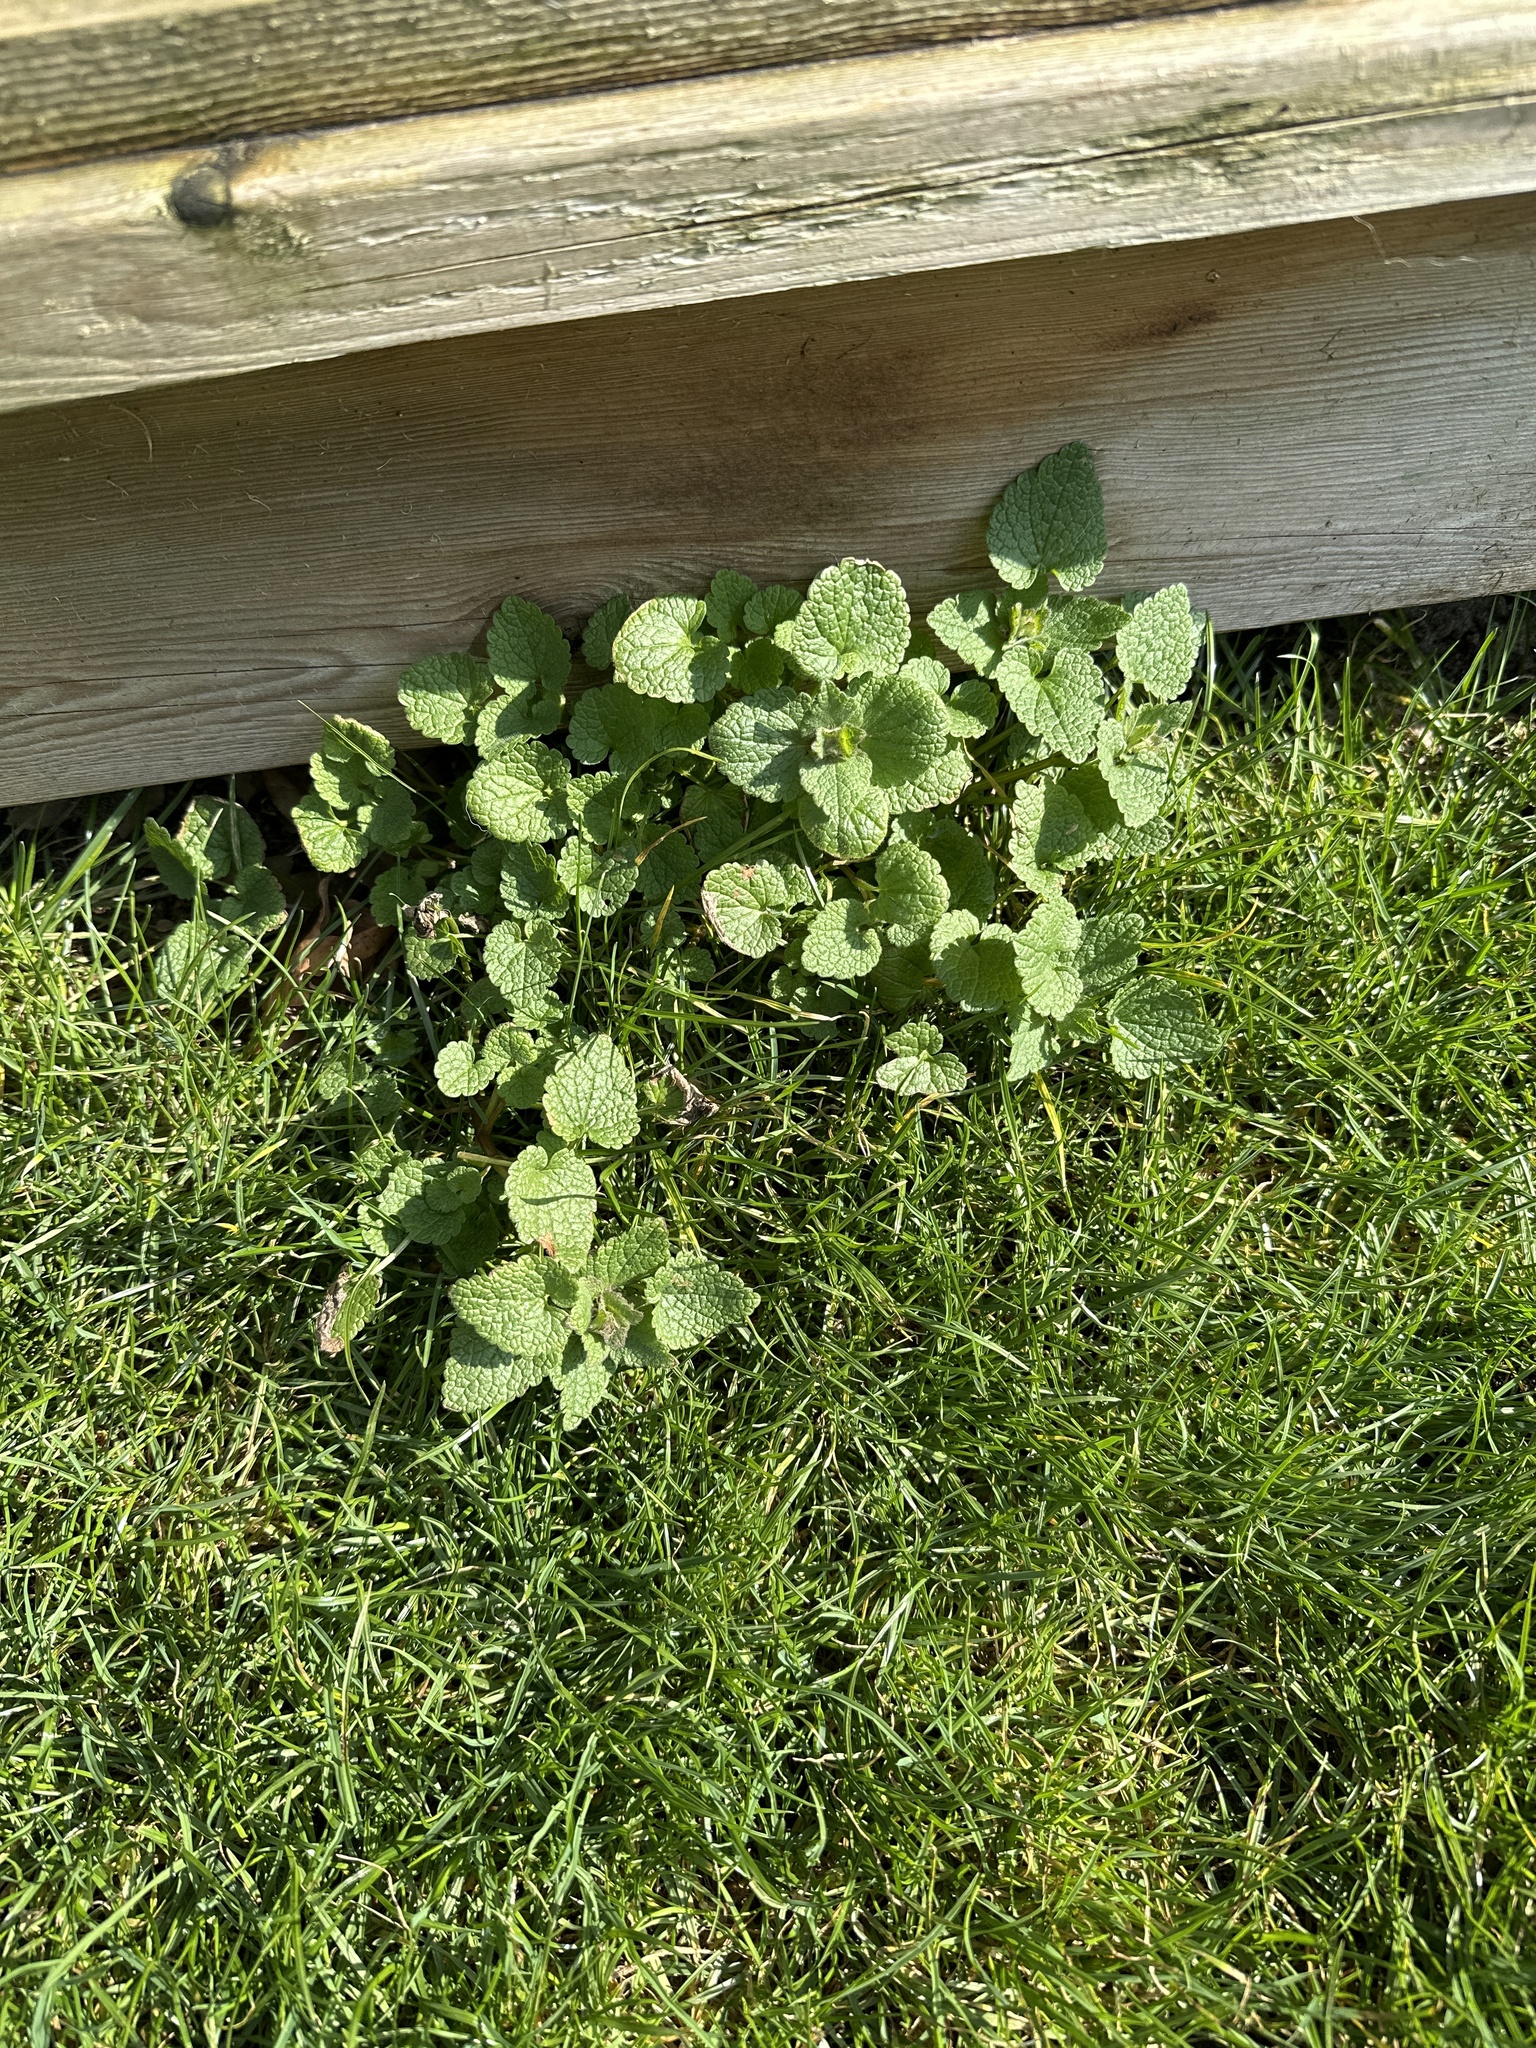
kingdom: Plantae
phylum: Tracheophyta
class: Magnoliopsida
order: Lamiales
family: Lamiaceae
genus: Lamium
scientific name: Lamium purpureum
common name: Red dead-nettle
